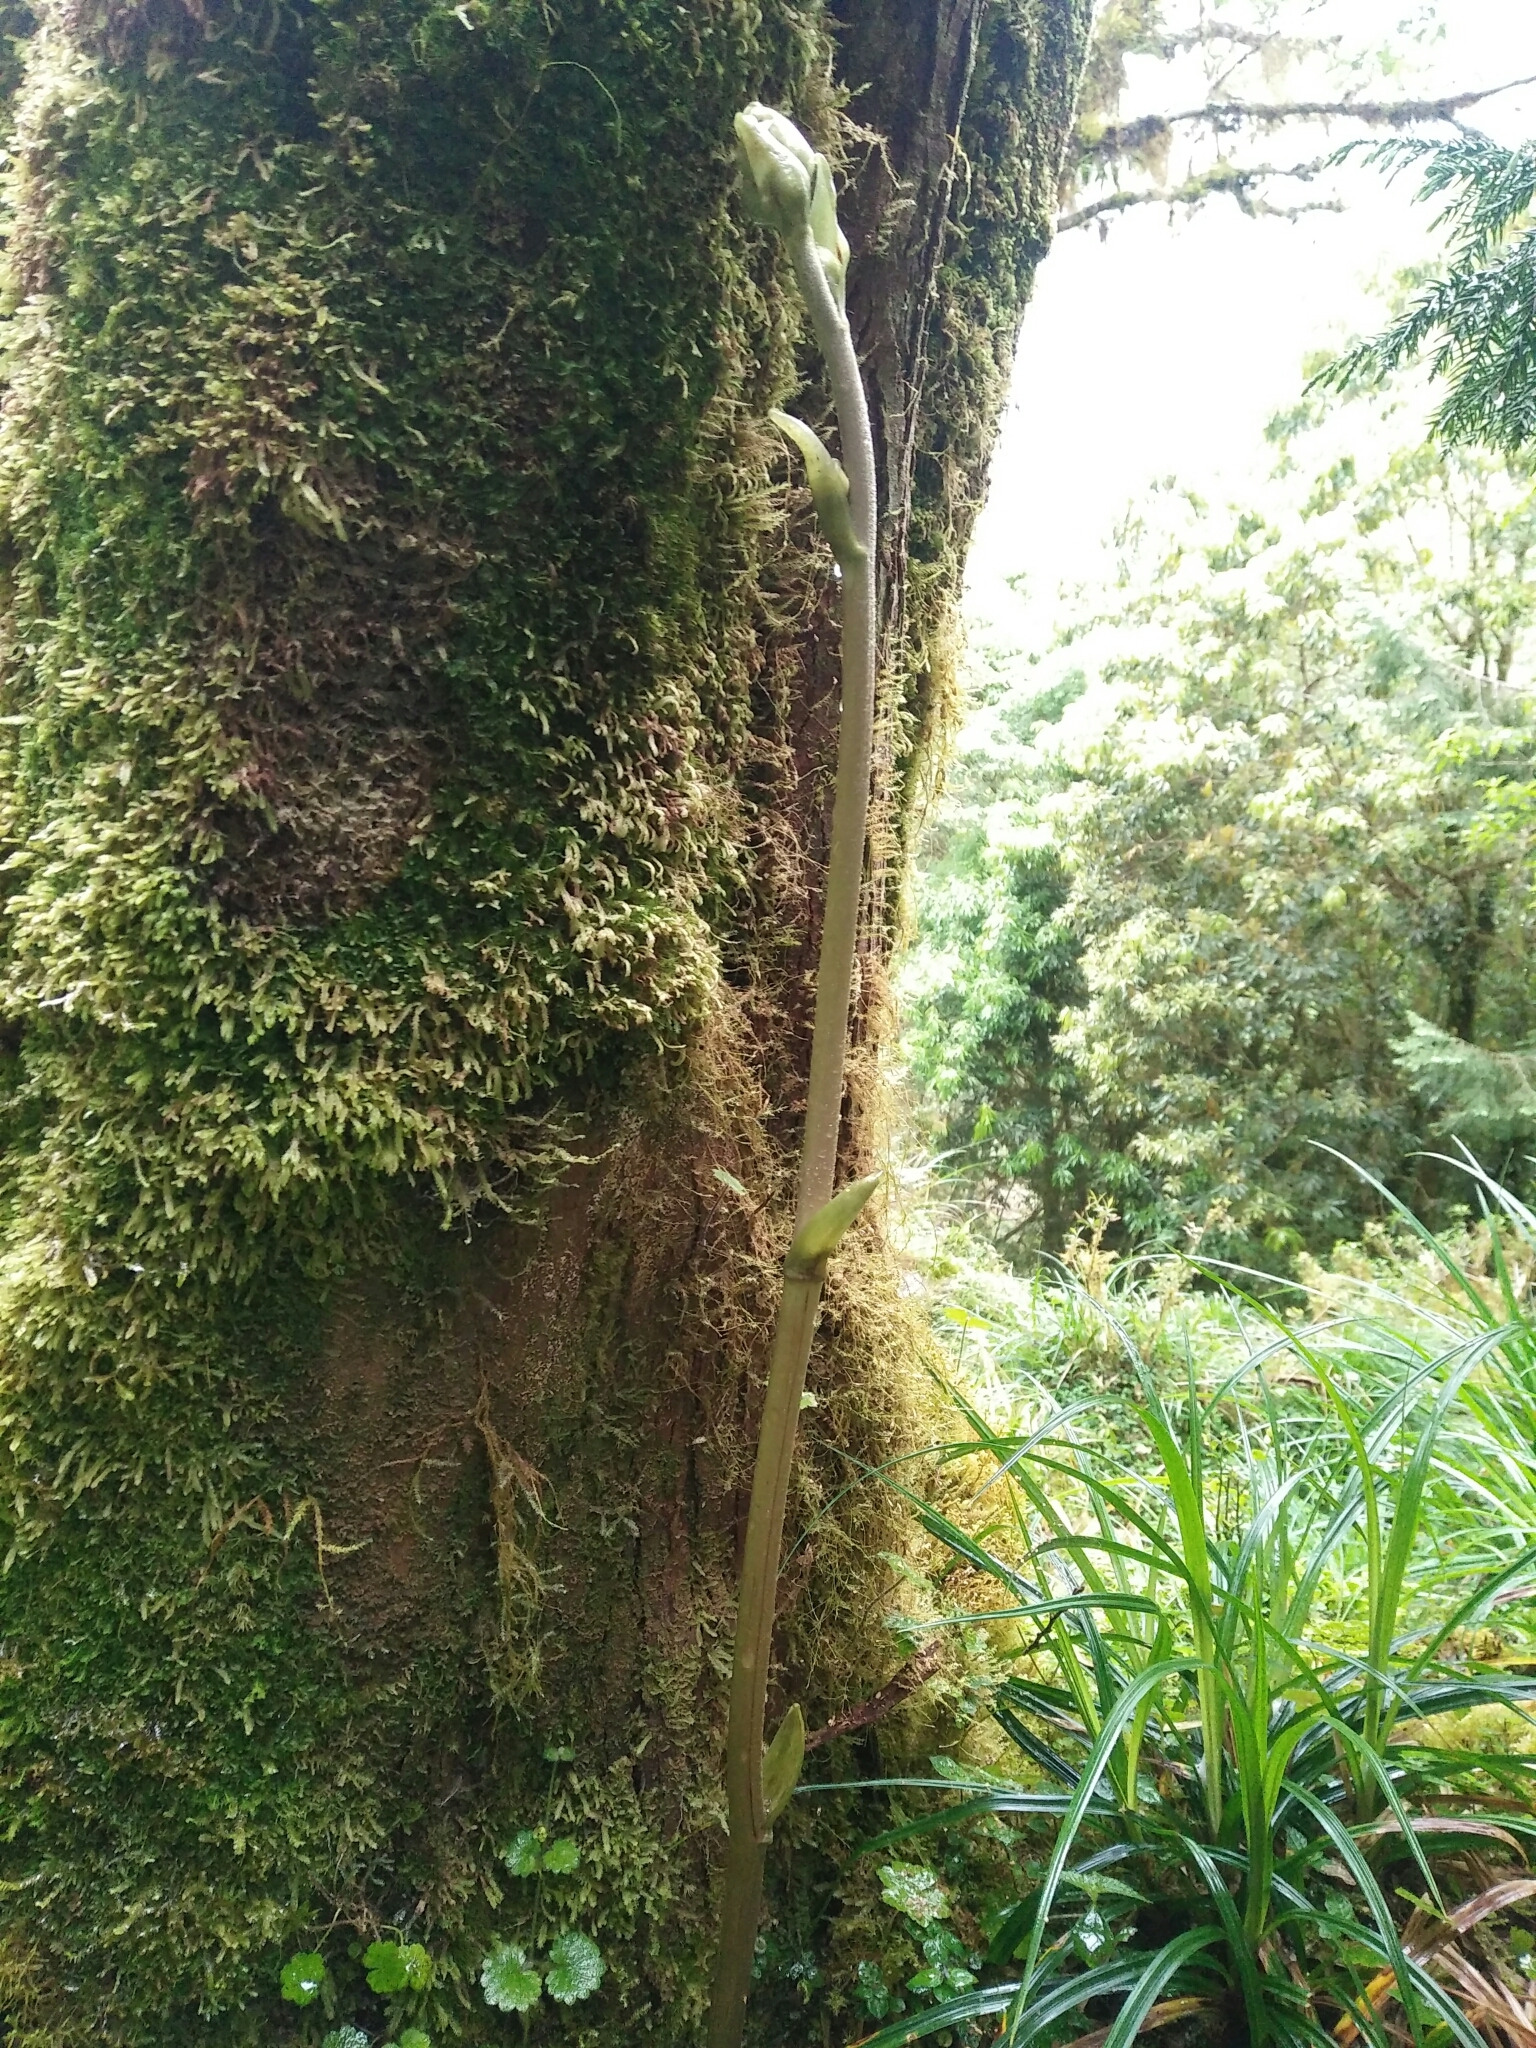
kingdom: Plantae
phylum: Tracheophyta
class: Liliopsida
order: Asparagales
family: Orchidaceae
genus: Galeola
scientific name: Galeola
